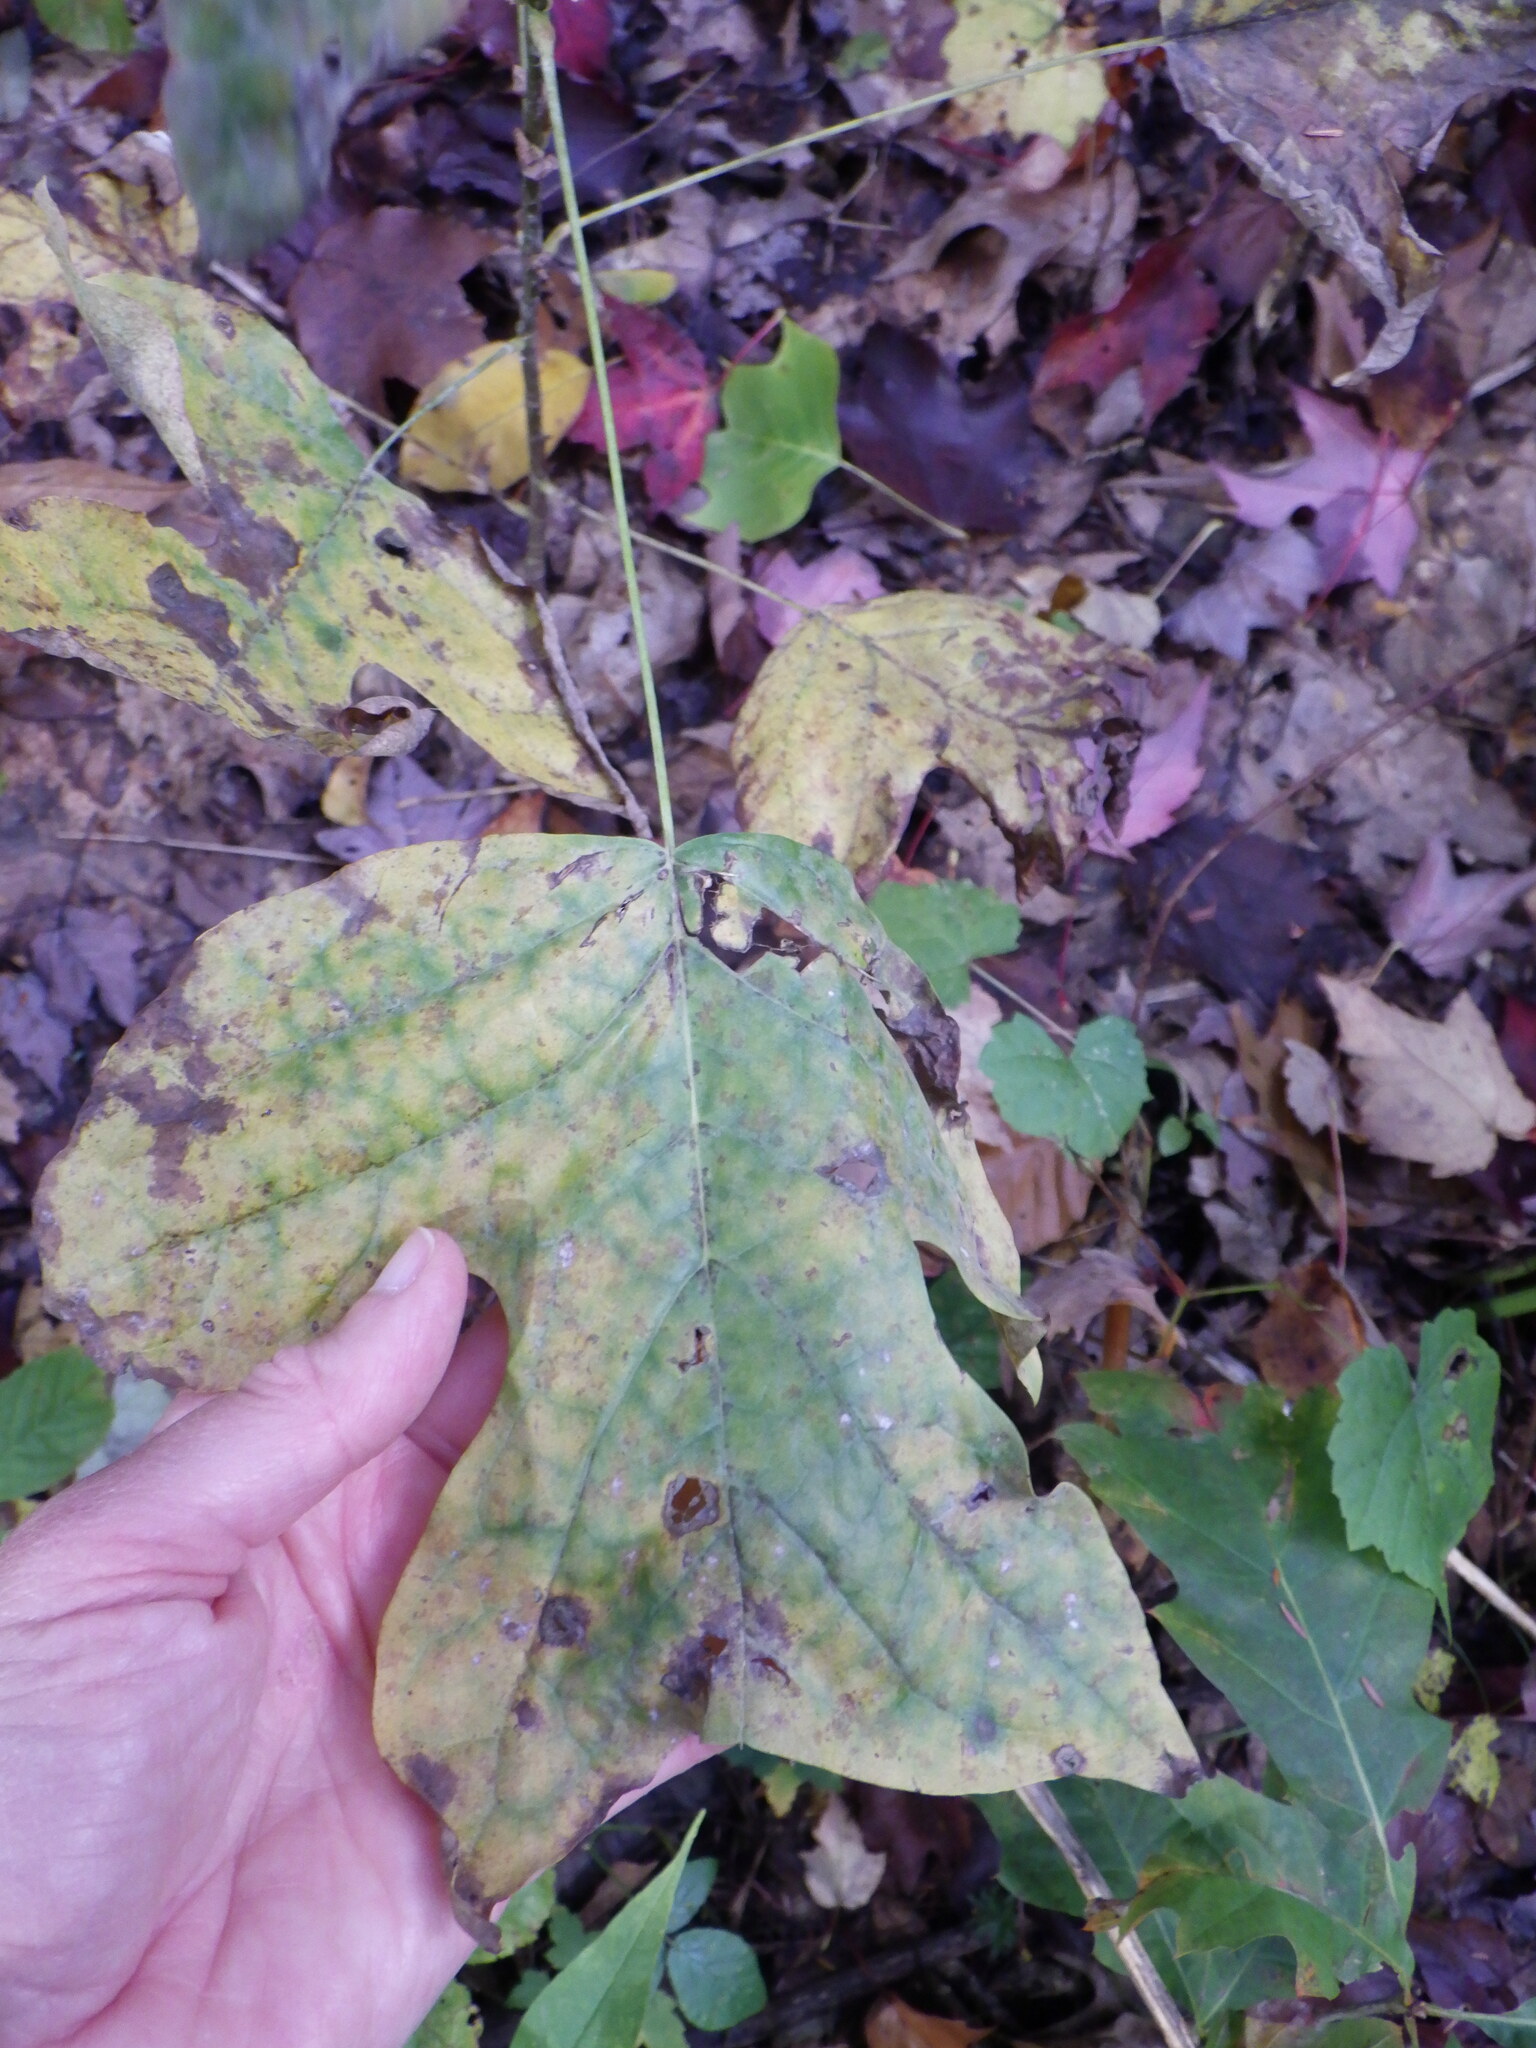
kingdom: Plantae
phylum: Tracheophyta
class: Magnoliopsida
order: Magnoliales
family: Magnoliaceae
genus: Liriodendron
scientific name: Liriodendron tulipifera
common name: Tulip tree
